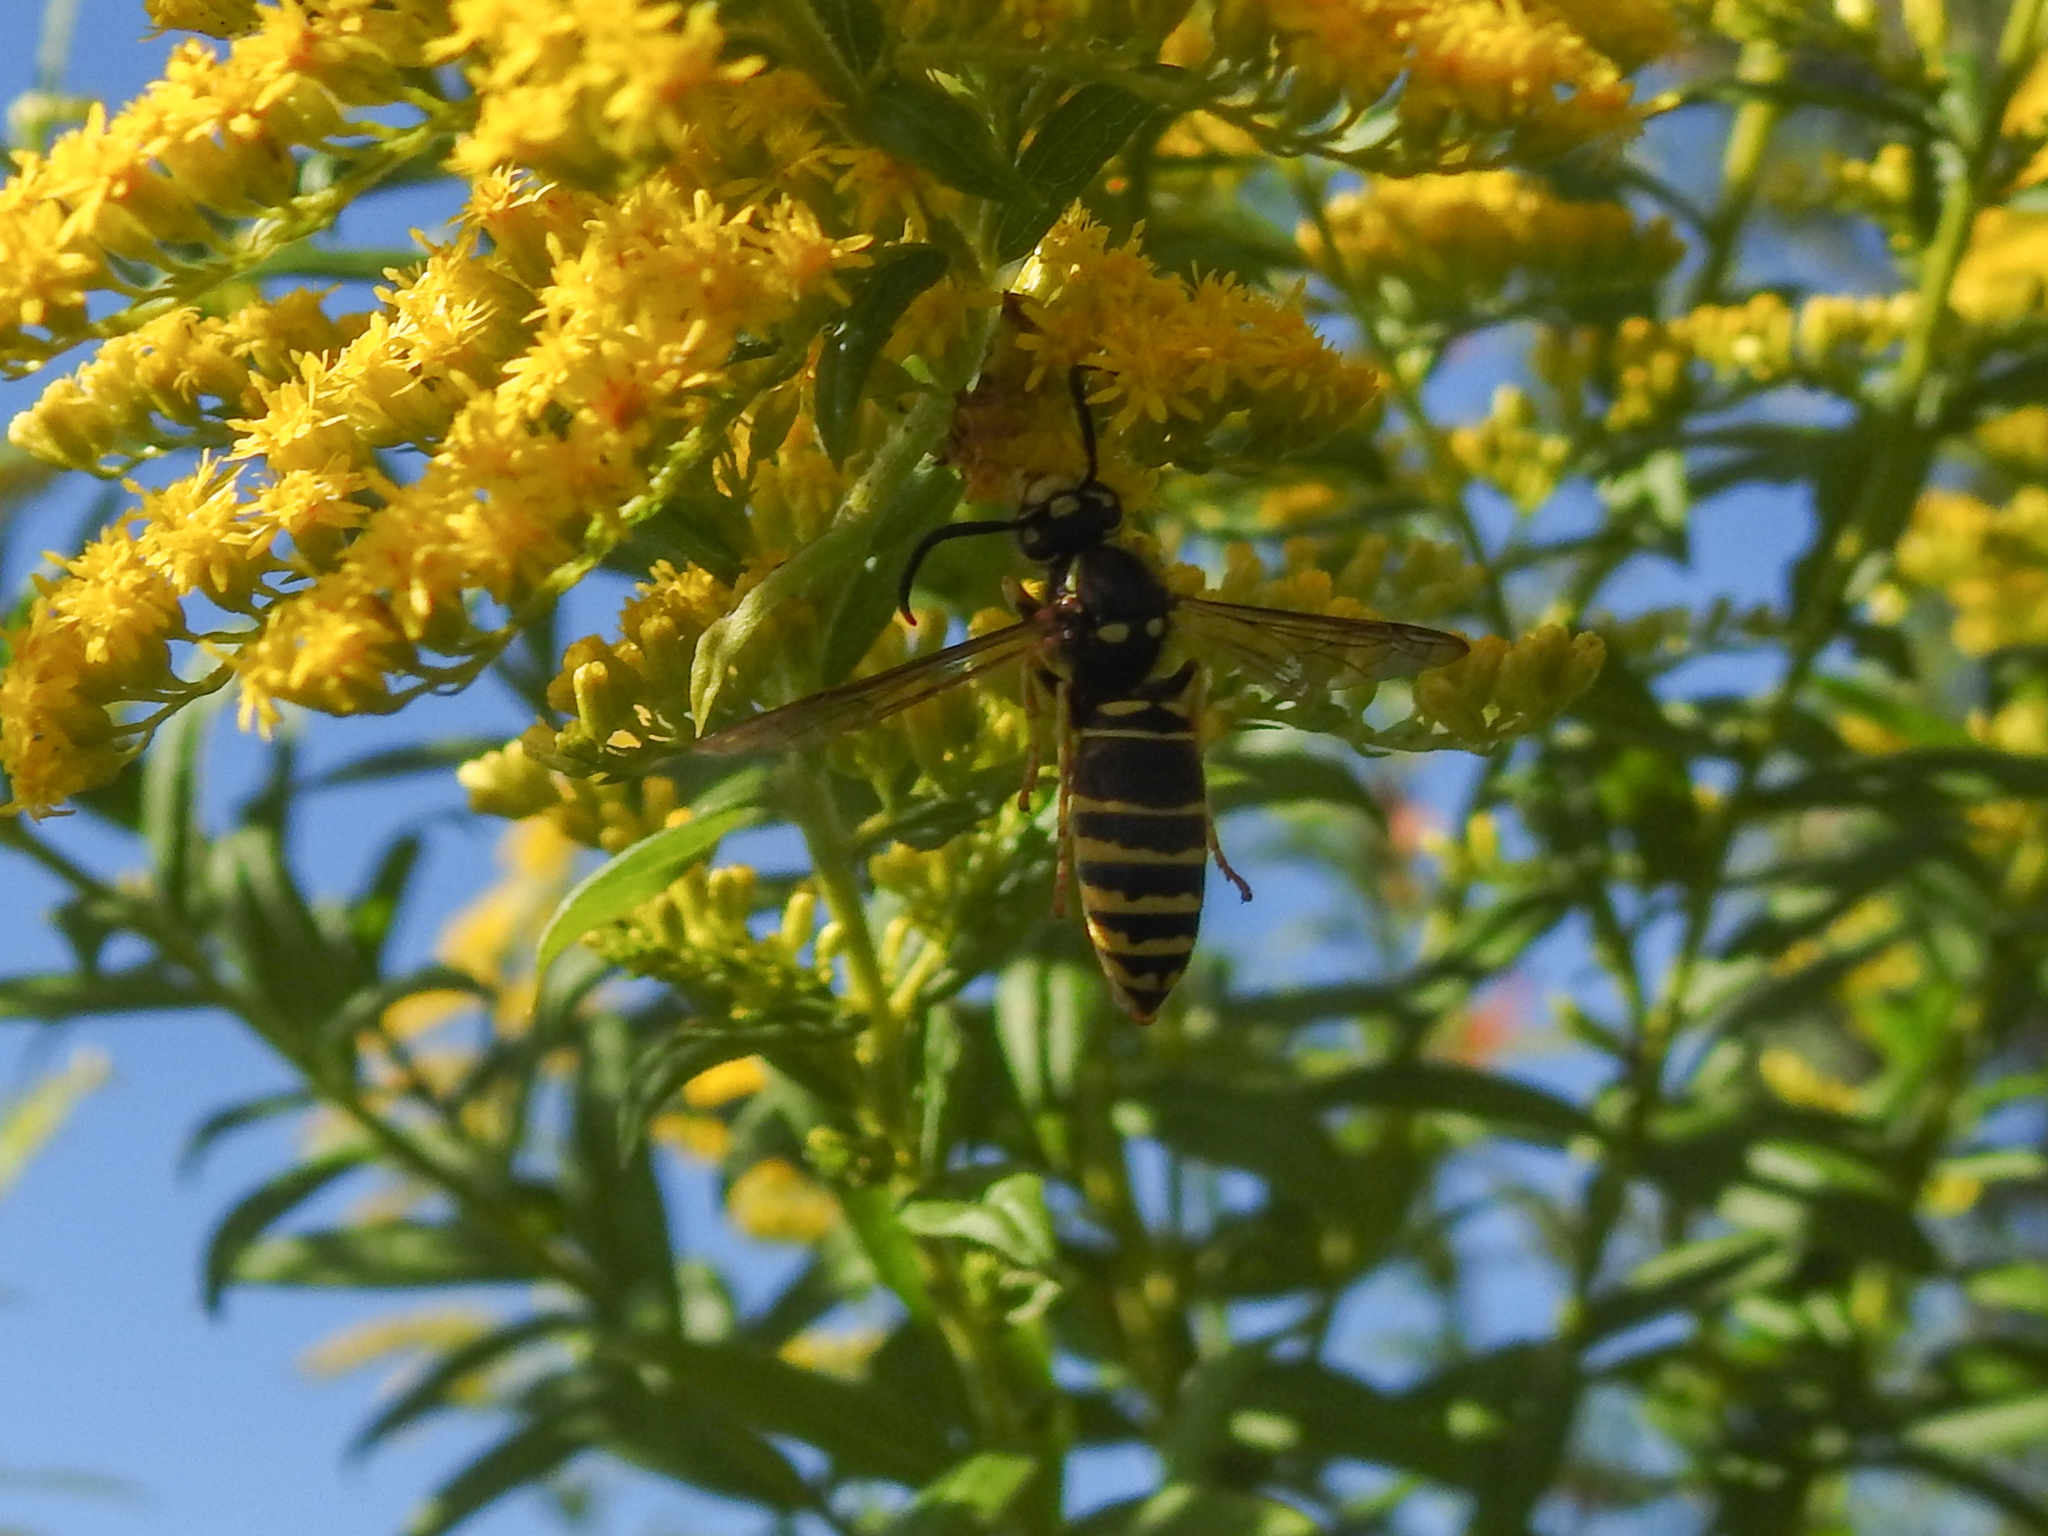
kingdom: Animalia
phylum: Arthropoda
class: Insecta
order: Hymenoptera
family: Vespidae
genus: Vespula
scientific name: Vespula vidua
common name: Widow yellowjacket
